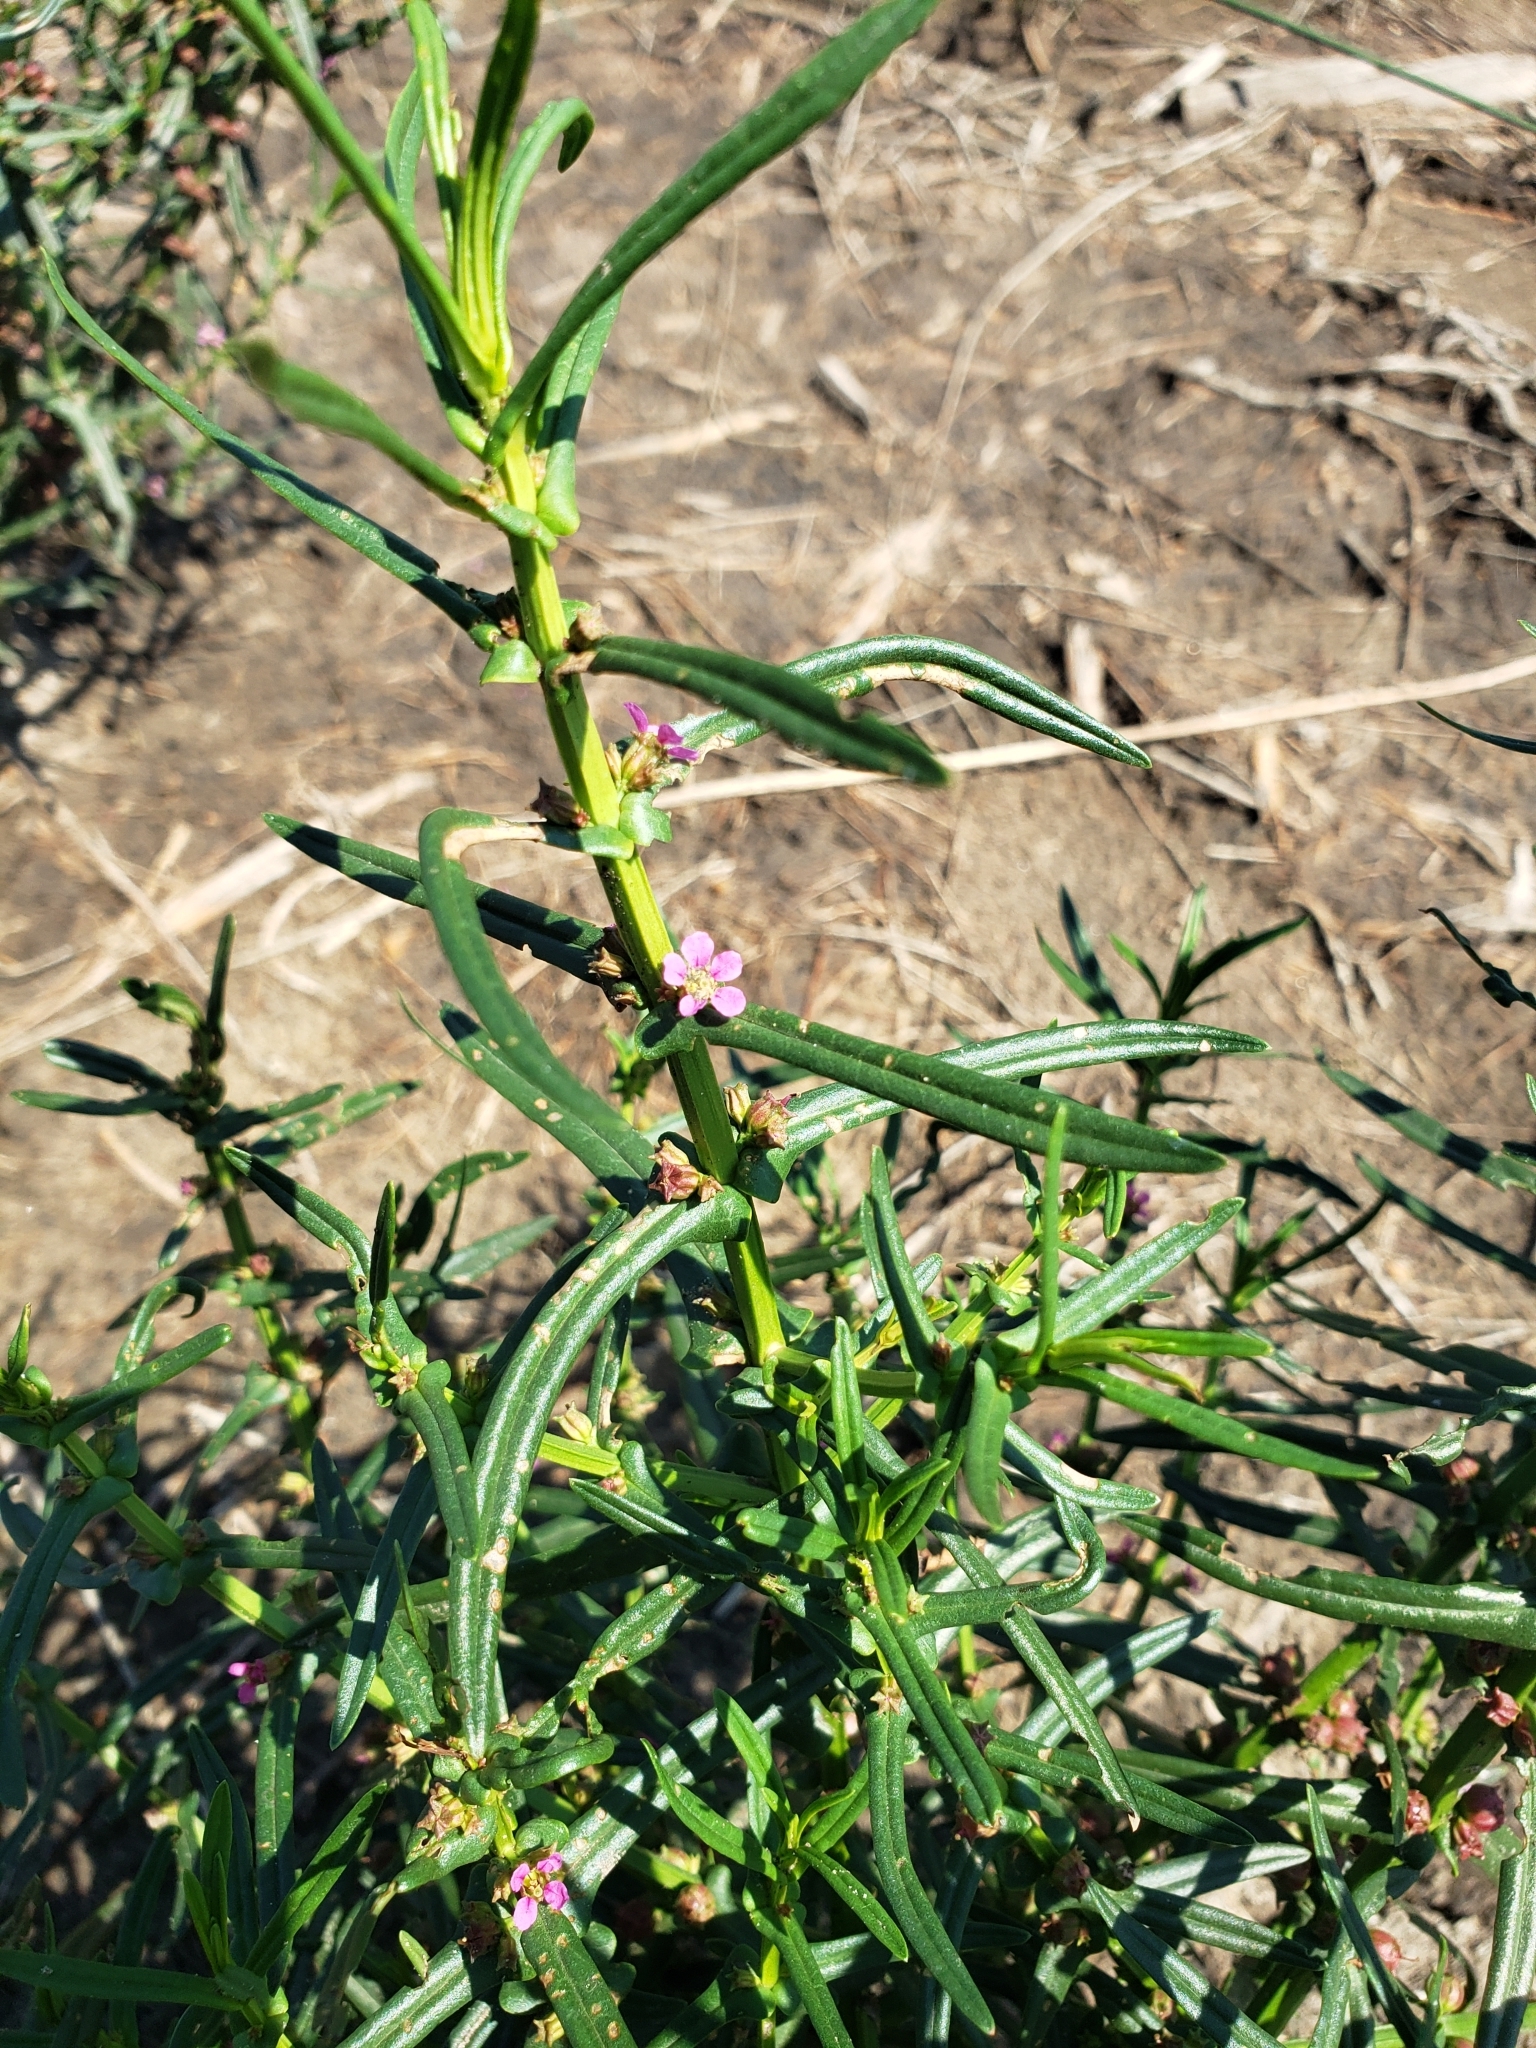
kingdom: Plantae
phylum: Tracheophyta
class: Magnoliopsida
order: Myrtales
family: Lythraceae
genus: Ammannia
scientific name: Ammannia coccinea
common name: Valley redstem
